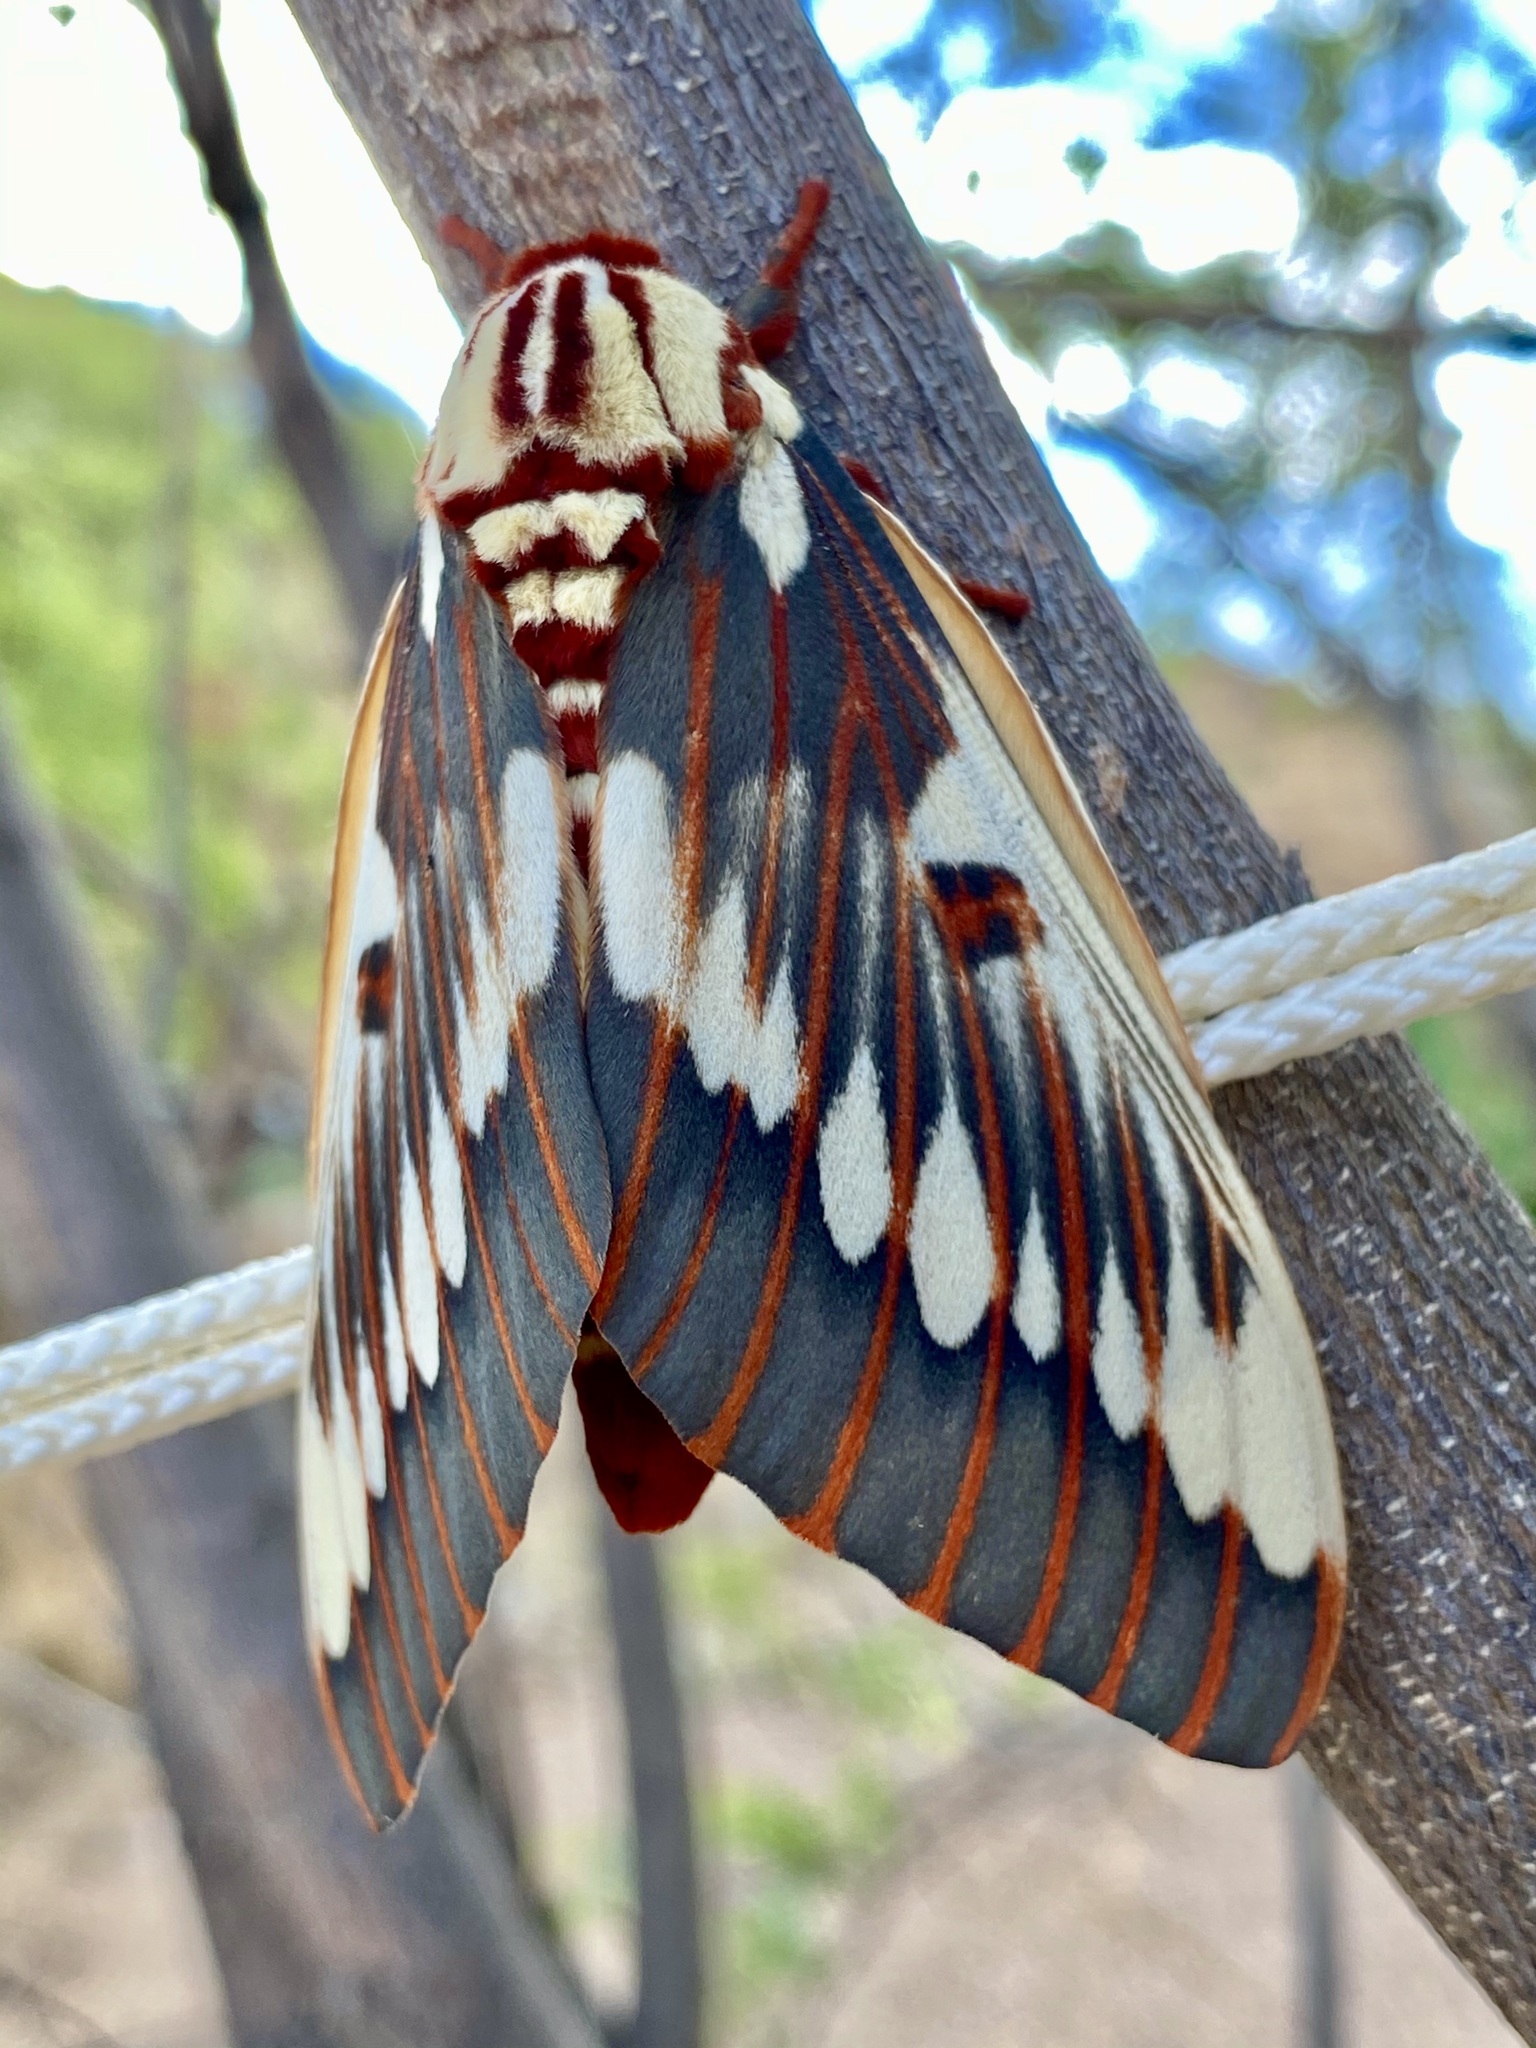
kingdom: Animalia
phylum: Arthropoda
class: Insecta
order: Lepidoptera
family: Saturniidae
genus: Citheronia
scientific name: Citheronia splendens
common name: Splendid royal moth
